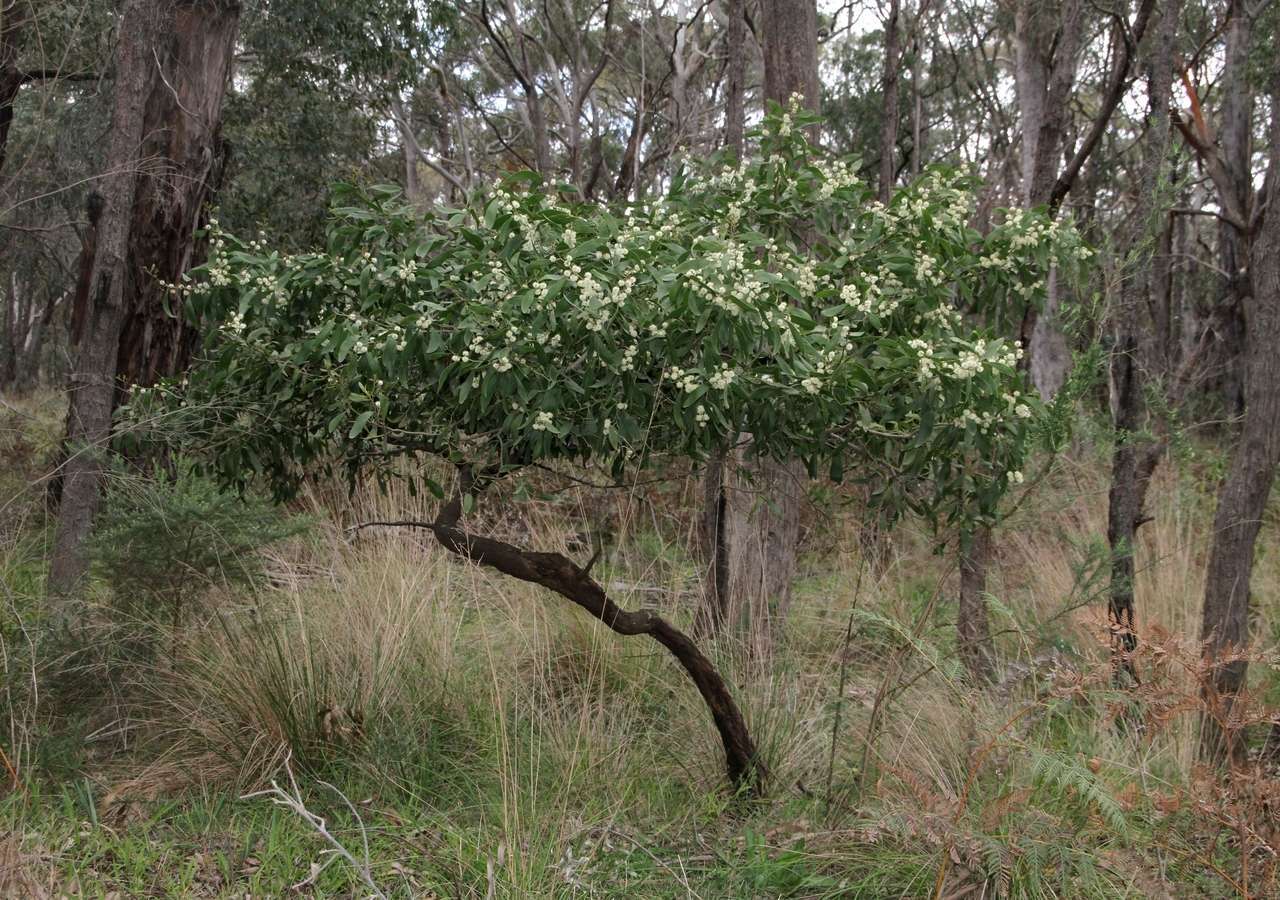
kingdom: Plantae
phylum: Tracheophyta
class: Magnoliopsida
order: Fabales
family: Fabaceae
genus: Acacia
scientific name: Acacia melanoxylon
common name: Blackwood
